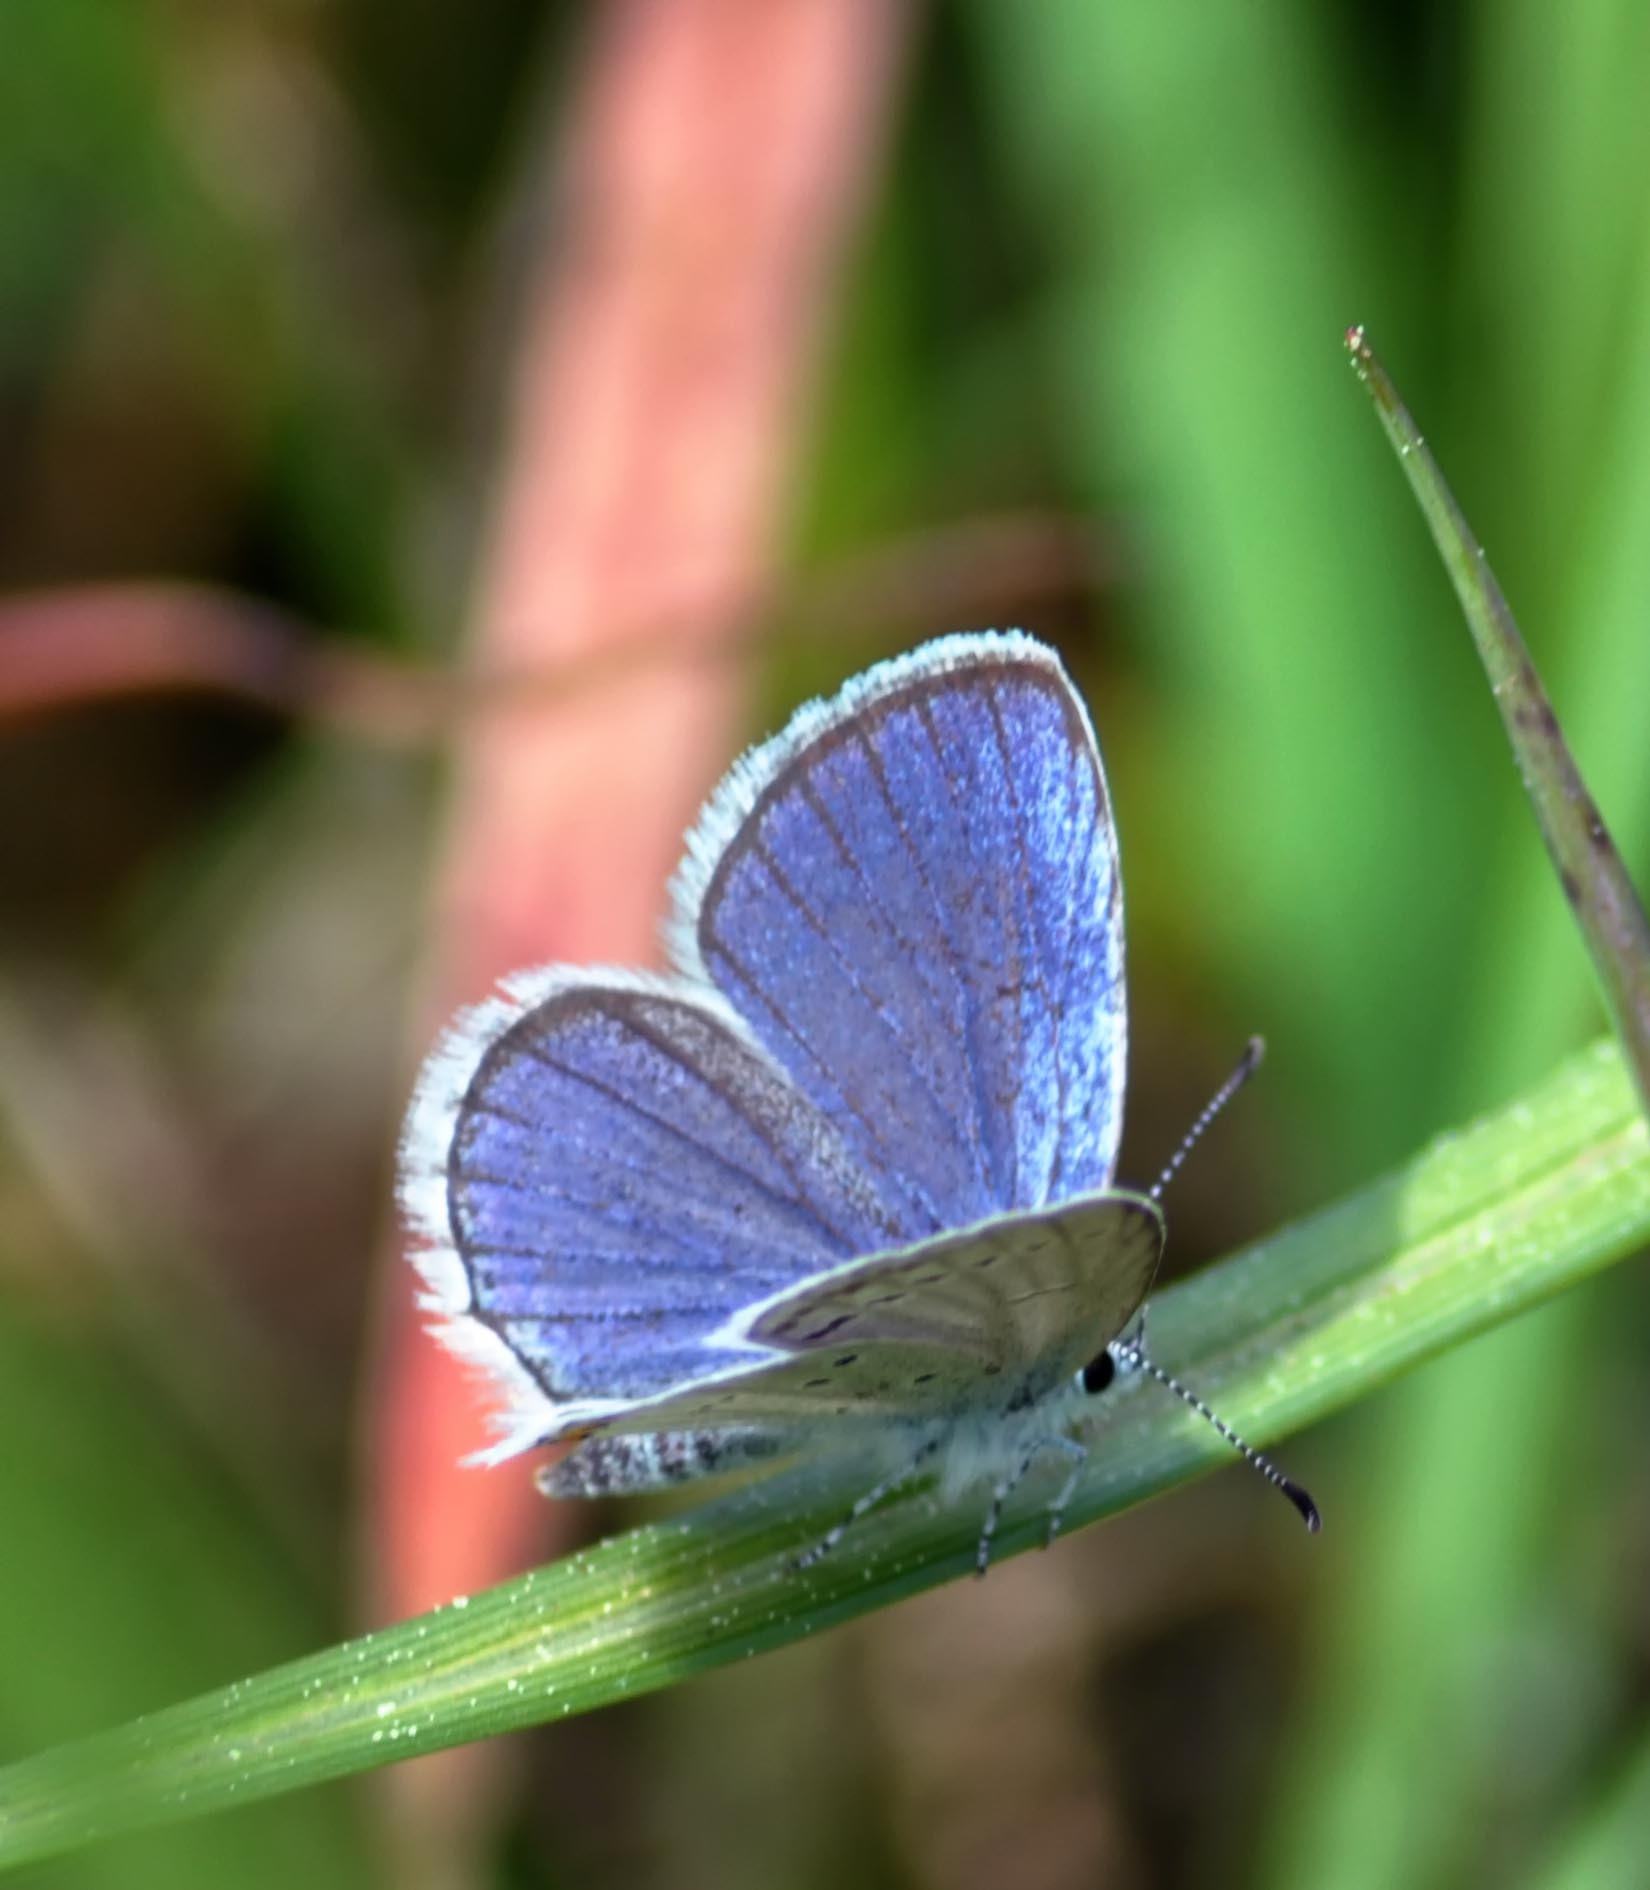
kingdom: Animalia
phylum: Arthropoda
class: Insecta
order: Lepidoptera
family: Lycaenidae
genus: Elkalyce
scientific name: Elkalyce argiades
